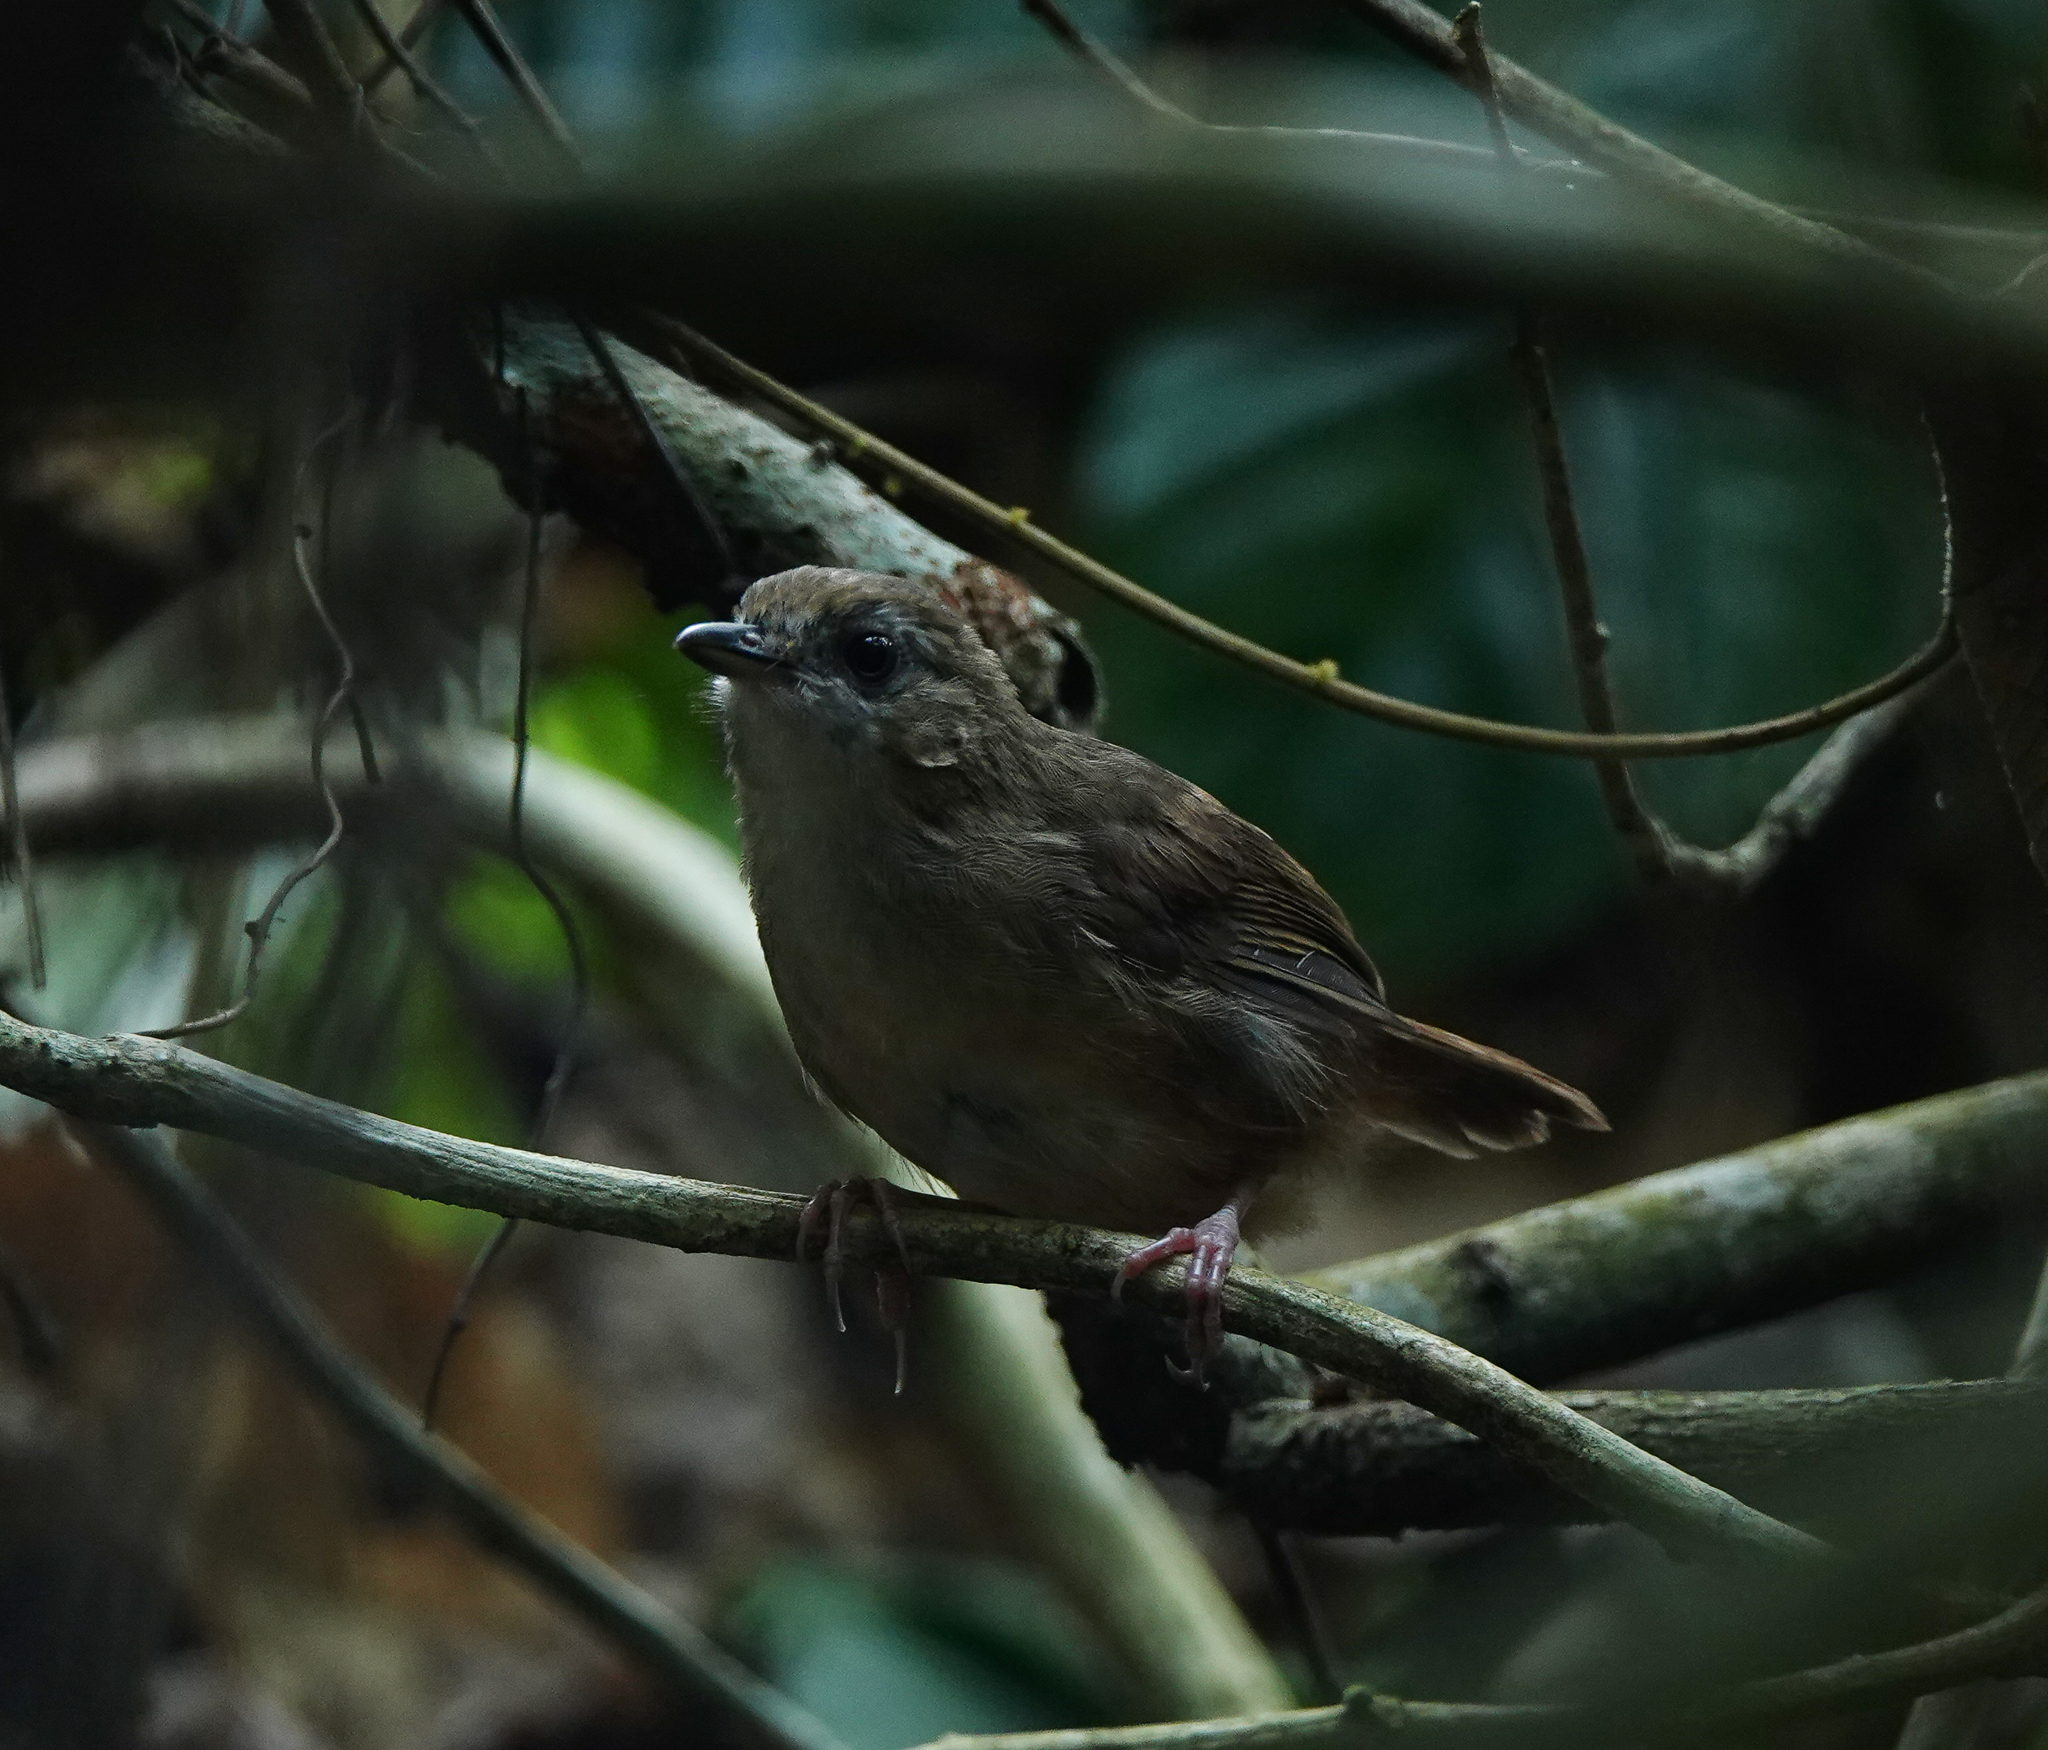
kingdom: Animalia
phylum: Chordata
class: Aves
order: Passeriformes
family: Pellorneidae
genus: Malacocincla
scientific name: Malacocincla abbotti
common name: Abbott's babbler
